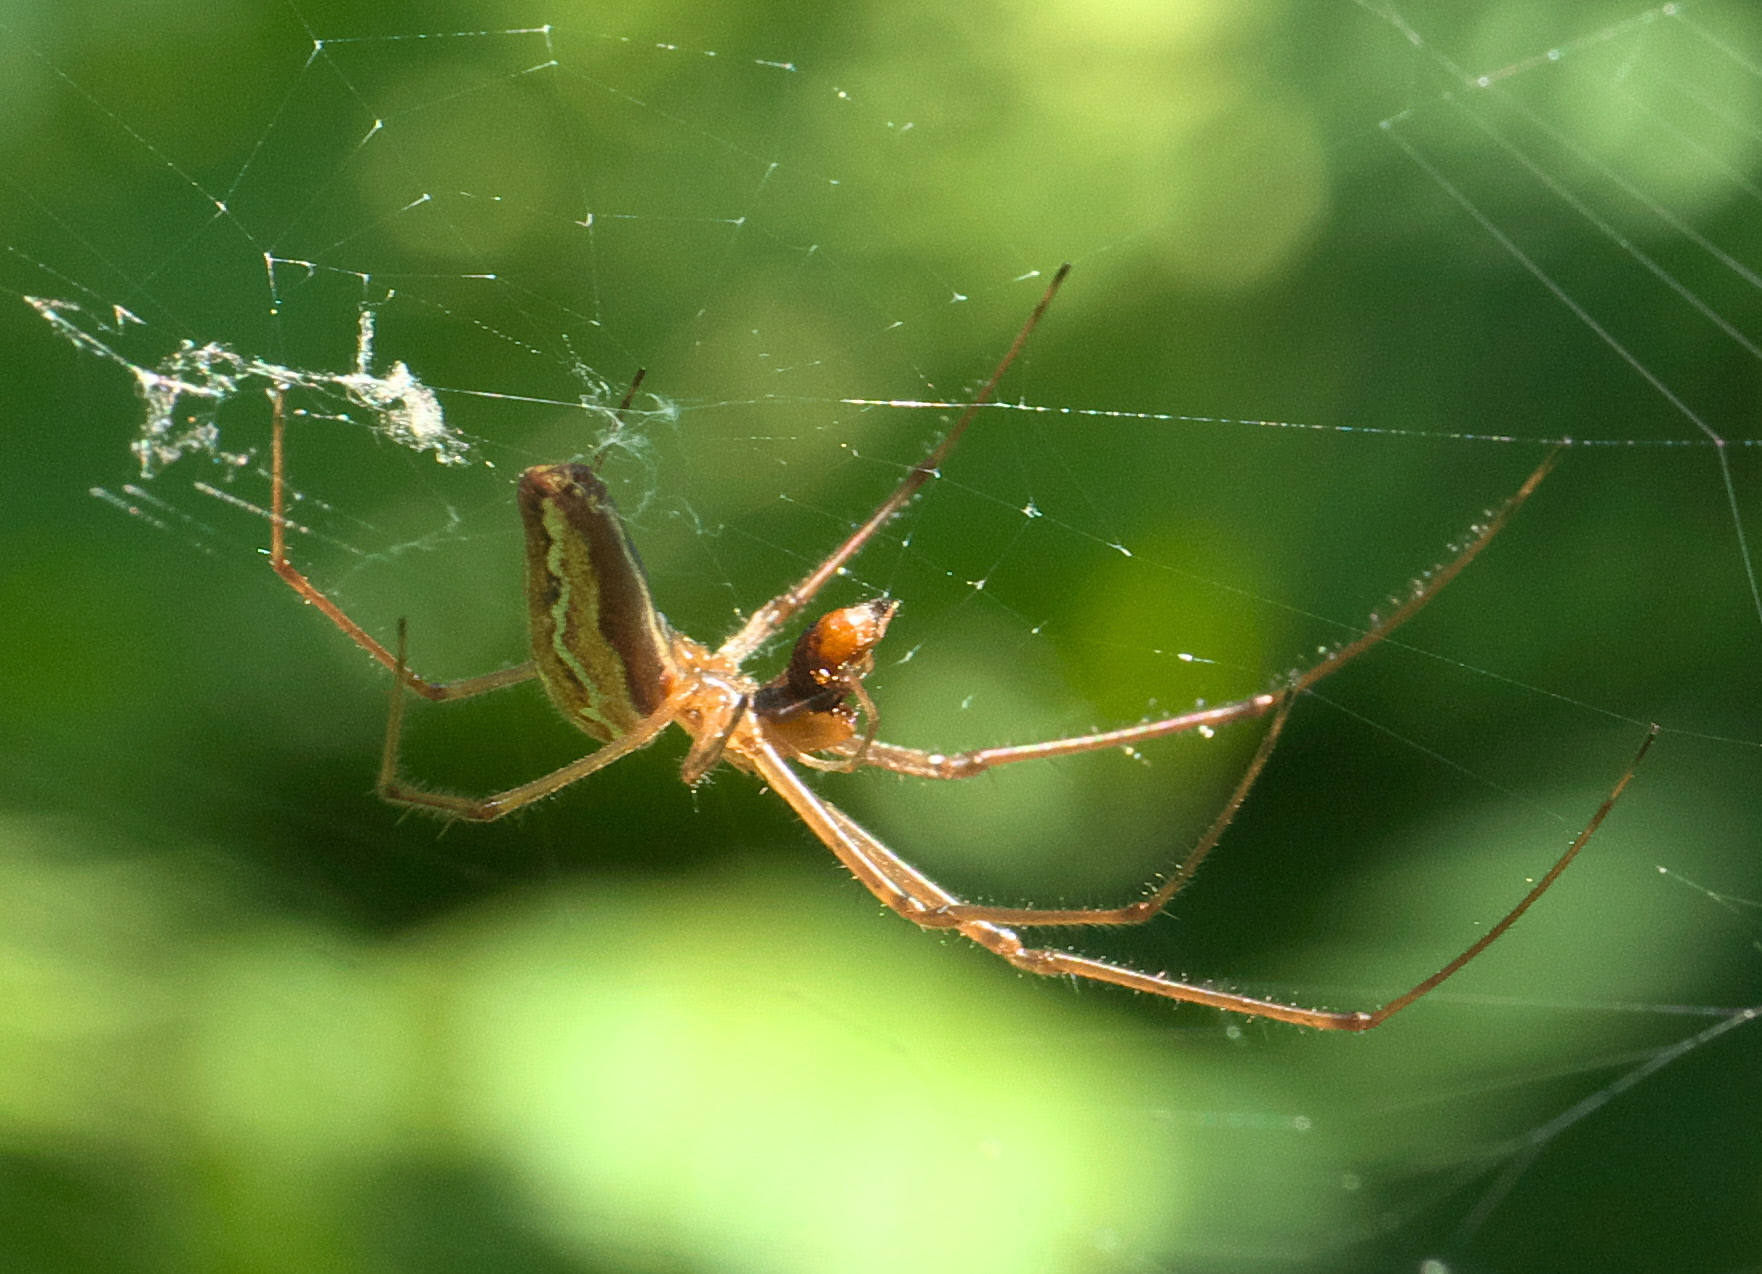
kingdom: Animalia
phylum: Arthropoda
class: Arachnida
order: Araneae
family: Tetragnathidae
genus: Tetragnatha
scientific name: Tetragnatha versicolor
